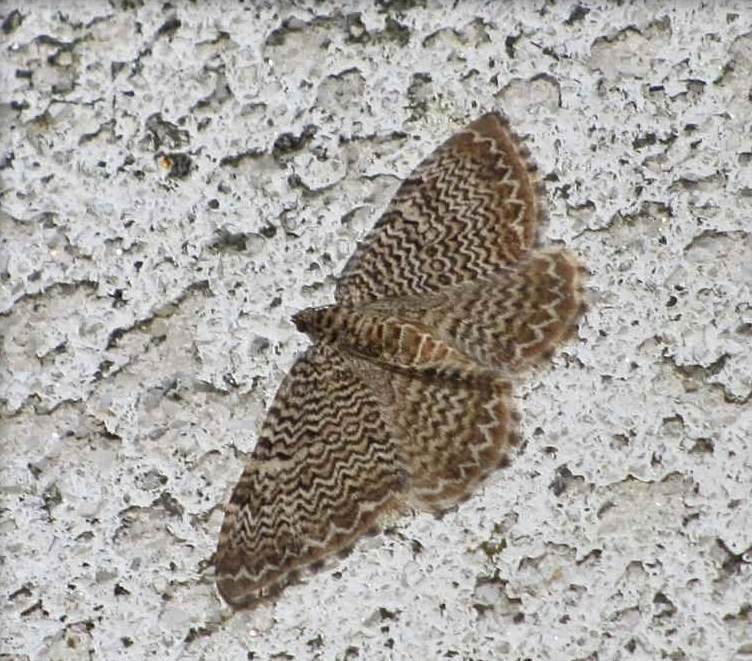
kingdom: Animalia
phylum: Arthropoda
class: Insecta
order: Lepidoptera
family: Geometridae
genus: Rheumaptera
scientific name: Rheumaptera
